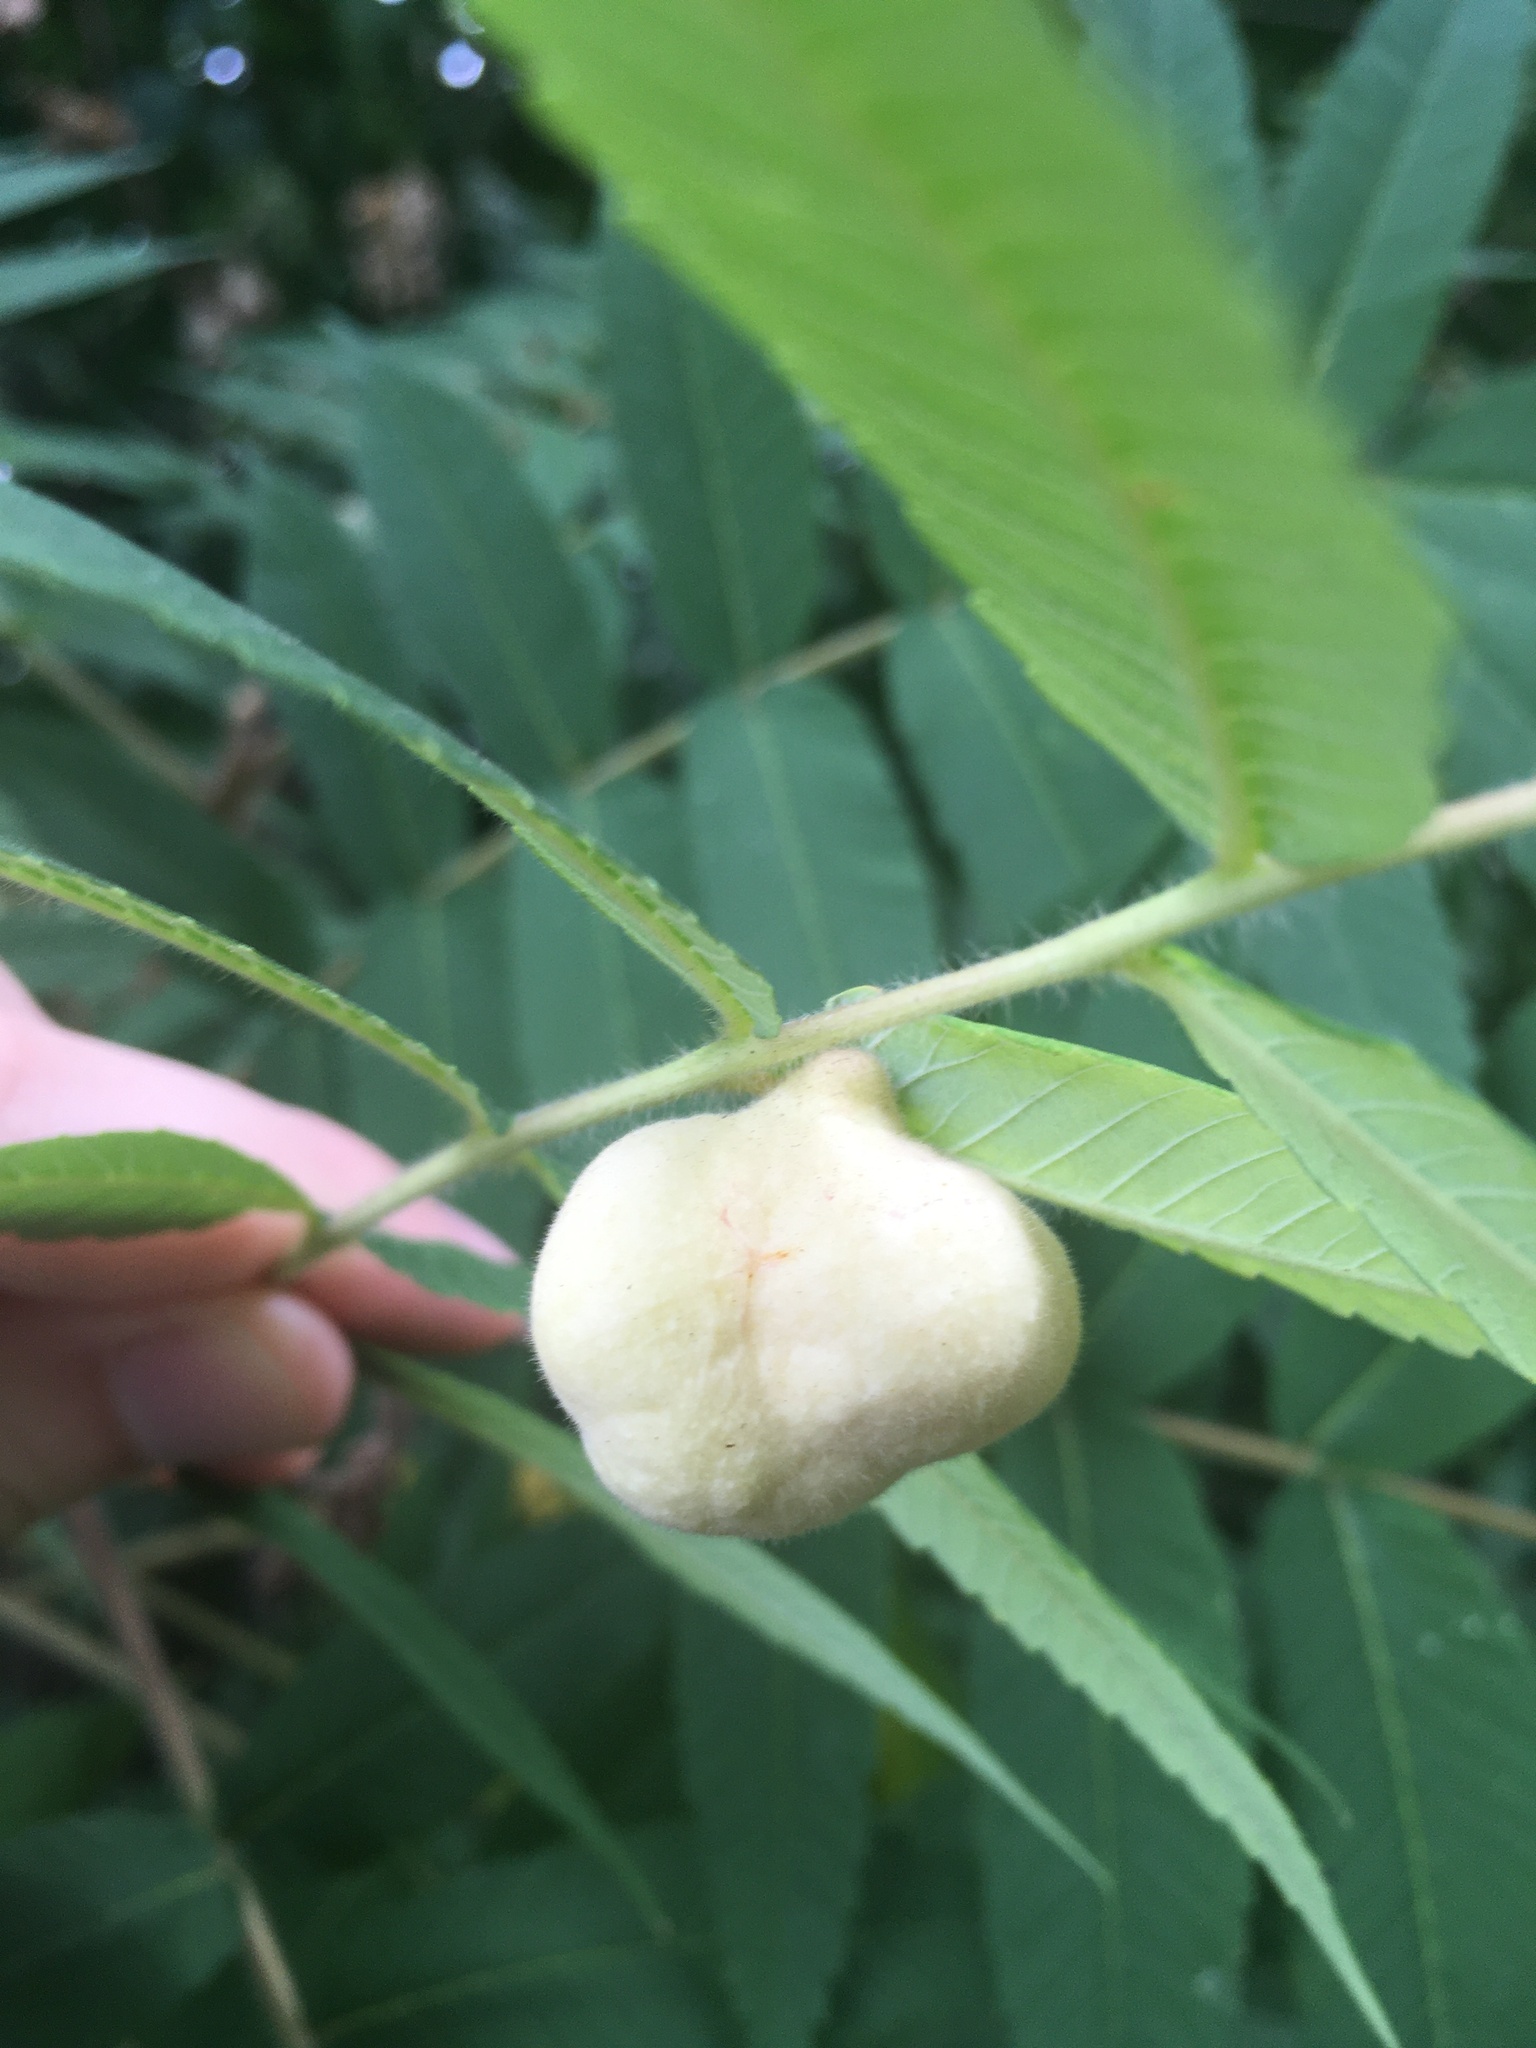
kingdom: Animalia
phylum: Arthropoda
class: Insecta
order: Hemiptera
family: Aphididae
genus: Melaphis
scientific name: Melaphis rhois
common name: Sumac gall aphid
